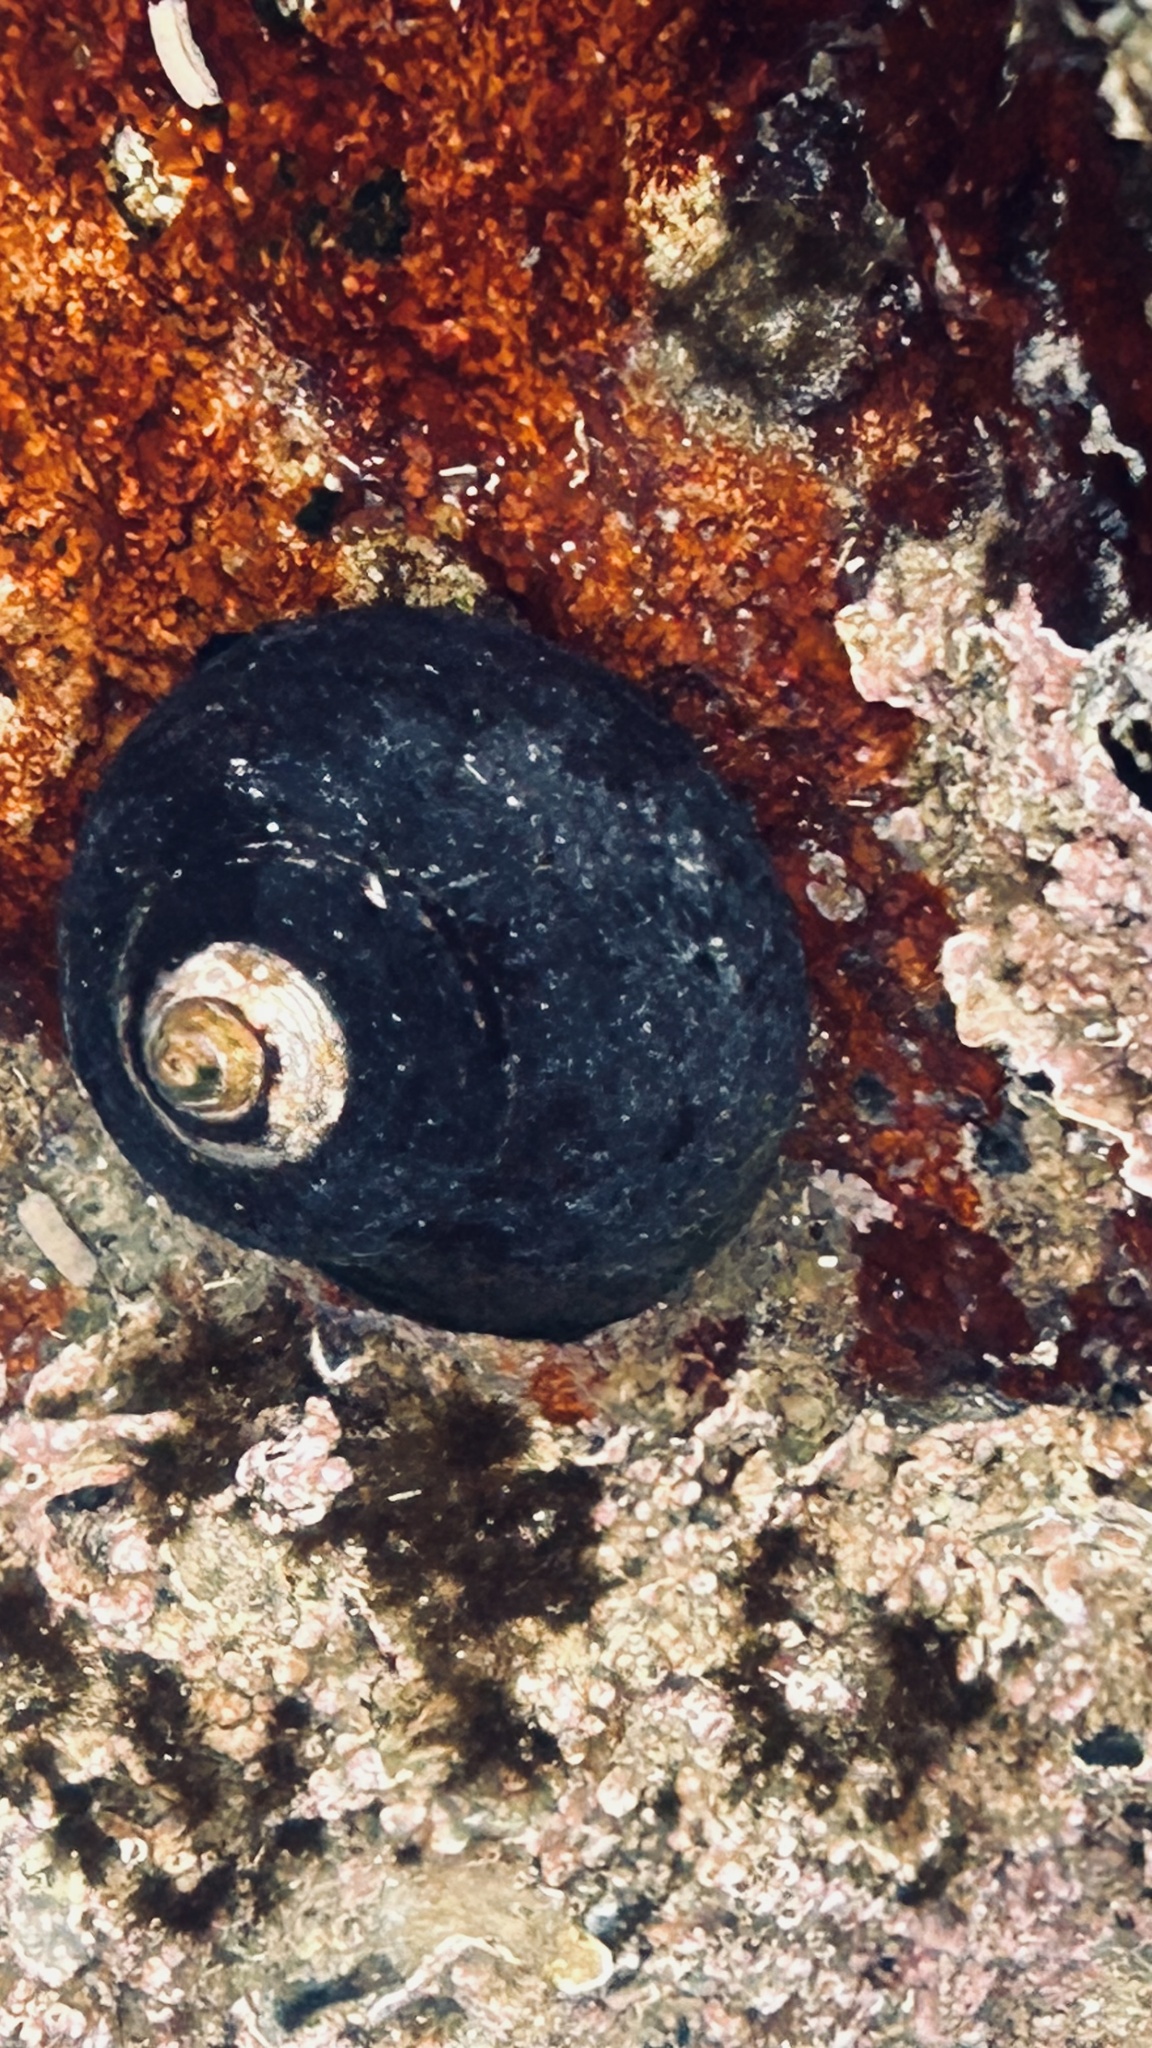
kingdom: Animalia
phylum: Mollusca
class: Gastropoda
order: Trochida
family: Trochidae
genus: Oxystele
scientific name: Oxystele sinensis
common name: Pink-lipped topshell
